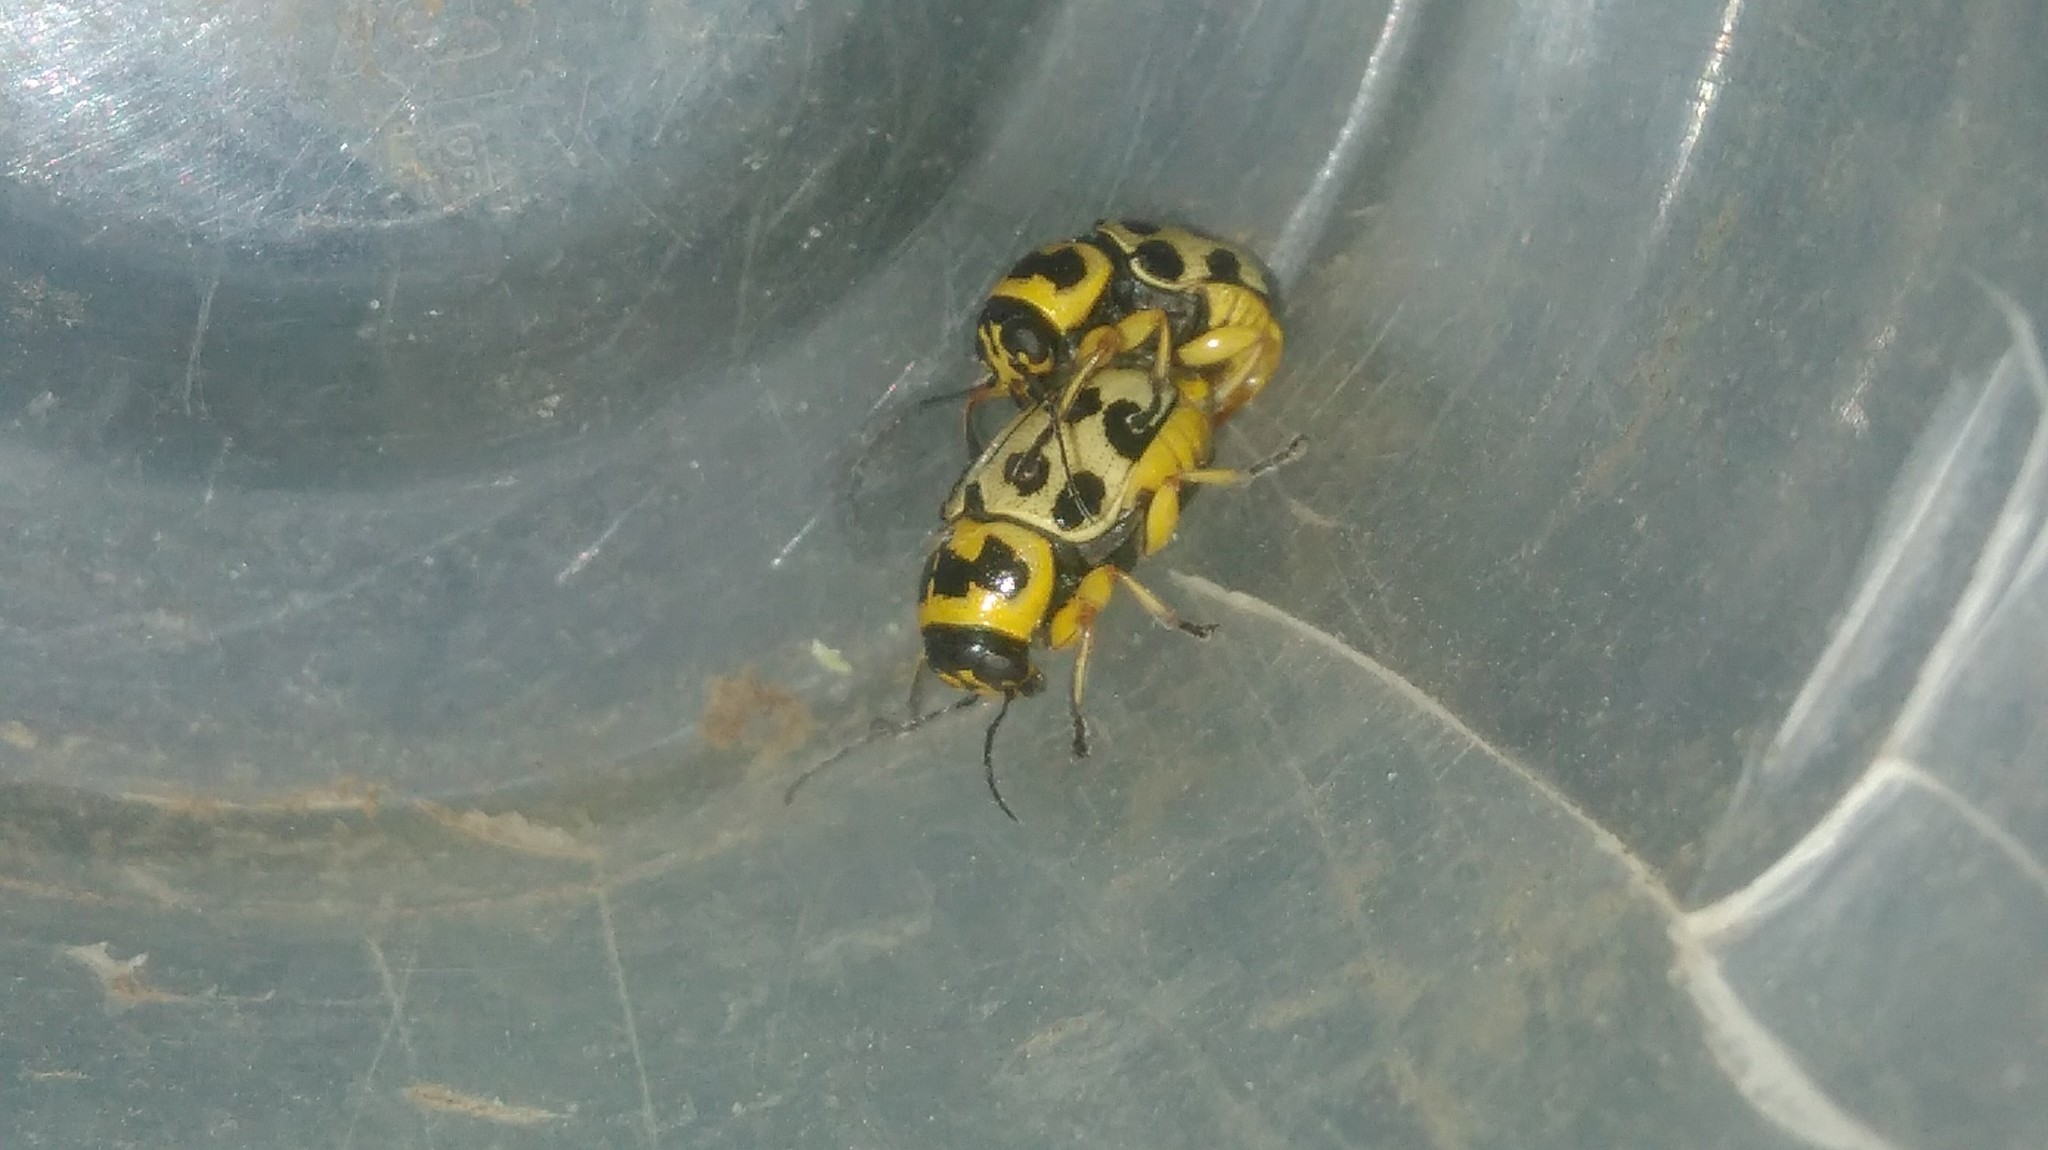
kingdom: Animalia
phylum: Arthropoda
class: Insecta
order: Coleoptera
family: Chrysomelidae
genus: Metallactus
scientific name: Metallactus pollens
